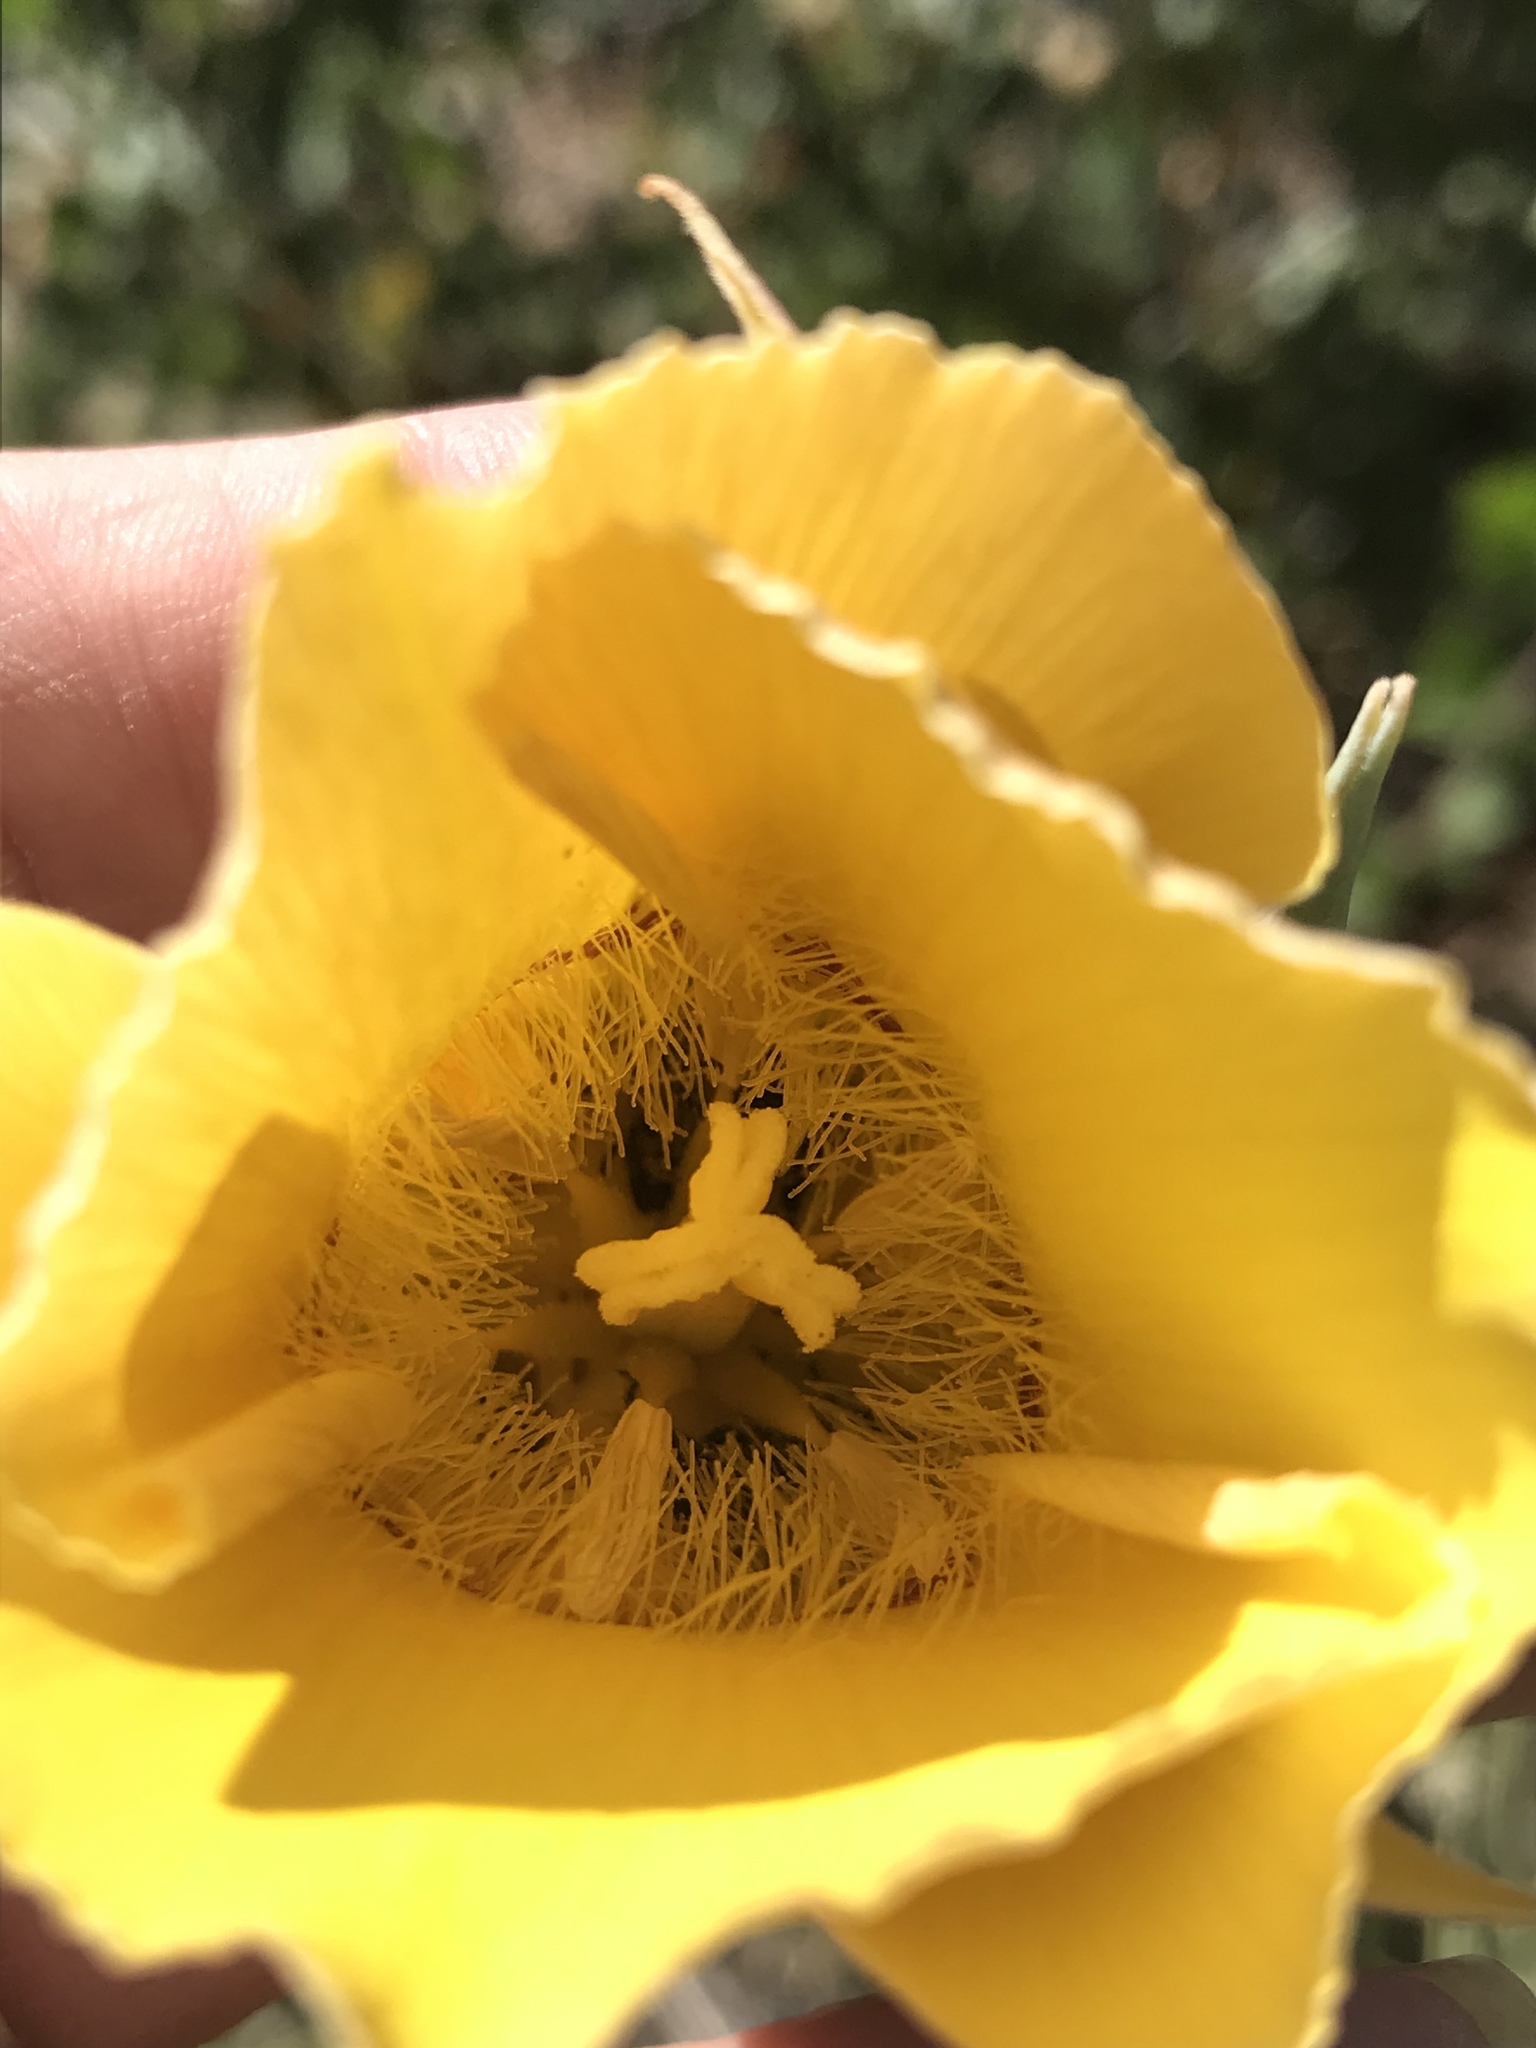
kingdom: Plantae
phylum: Tracheophyta
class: Liliopsida
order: Liliales
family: Liliaceae
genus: Calochortus
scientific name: Calochortus concolor
